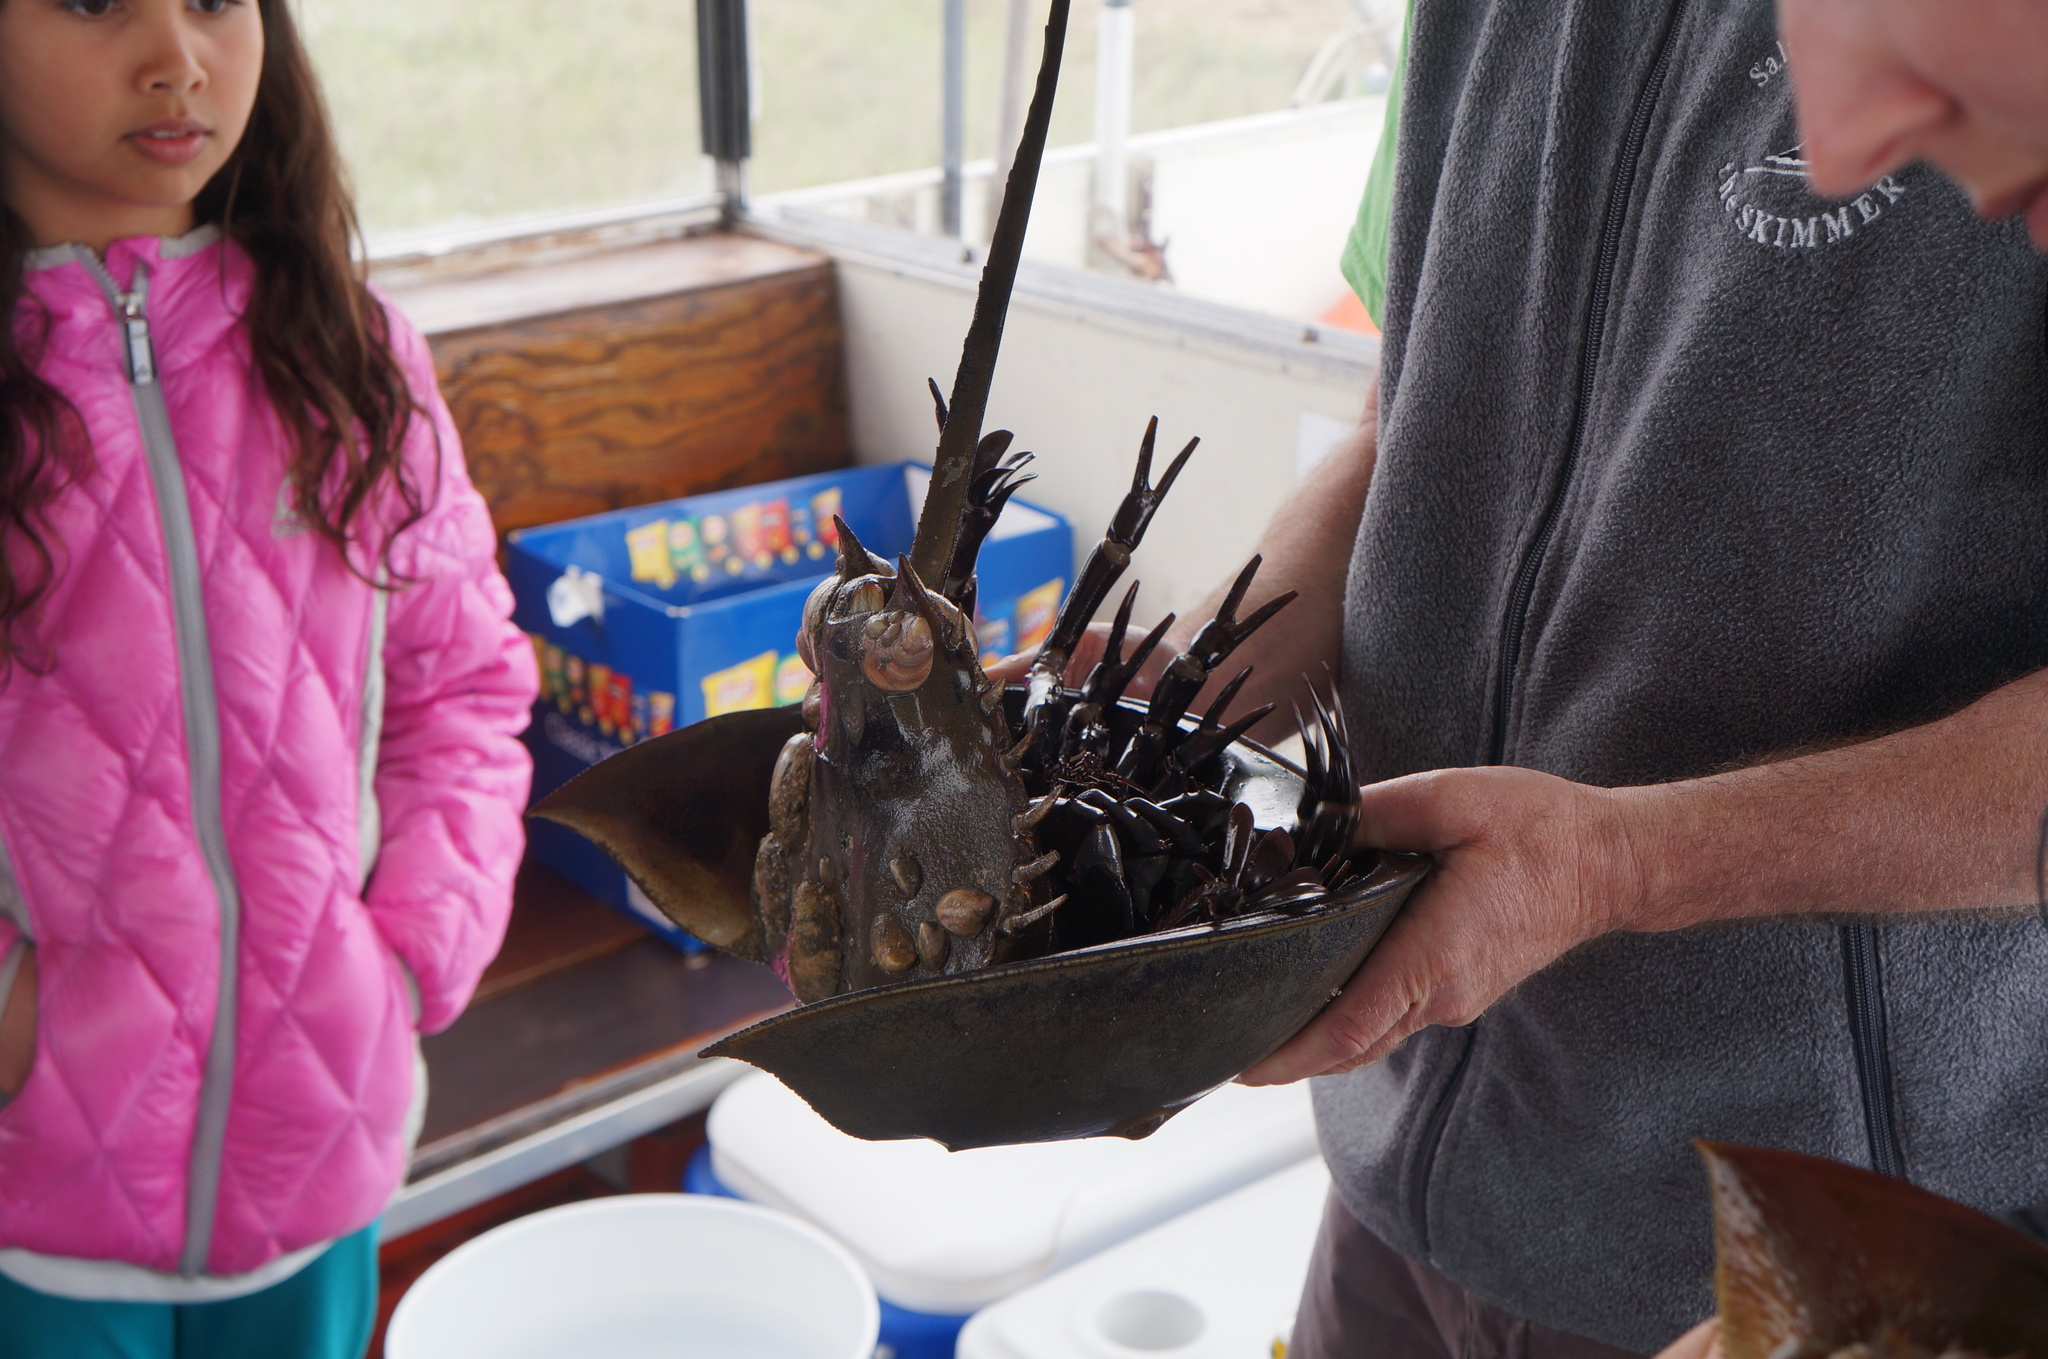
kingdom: Animalia
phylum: Arthropoda
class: Merostomata
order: Xiphosurida
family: Limulidae
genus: Limulus
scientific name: Limulus polyphemus
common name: Horseshoe crab
